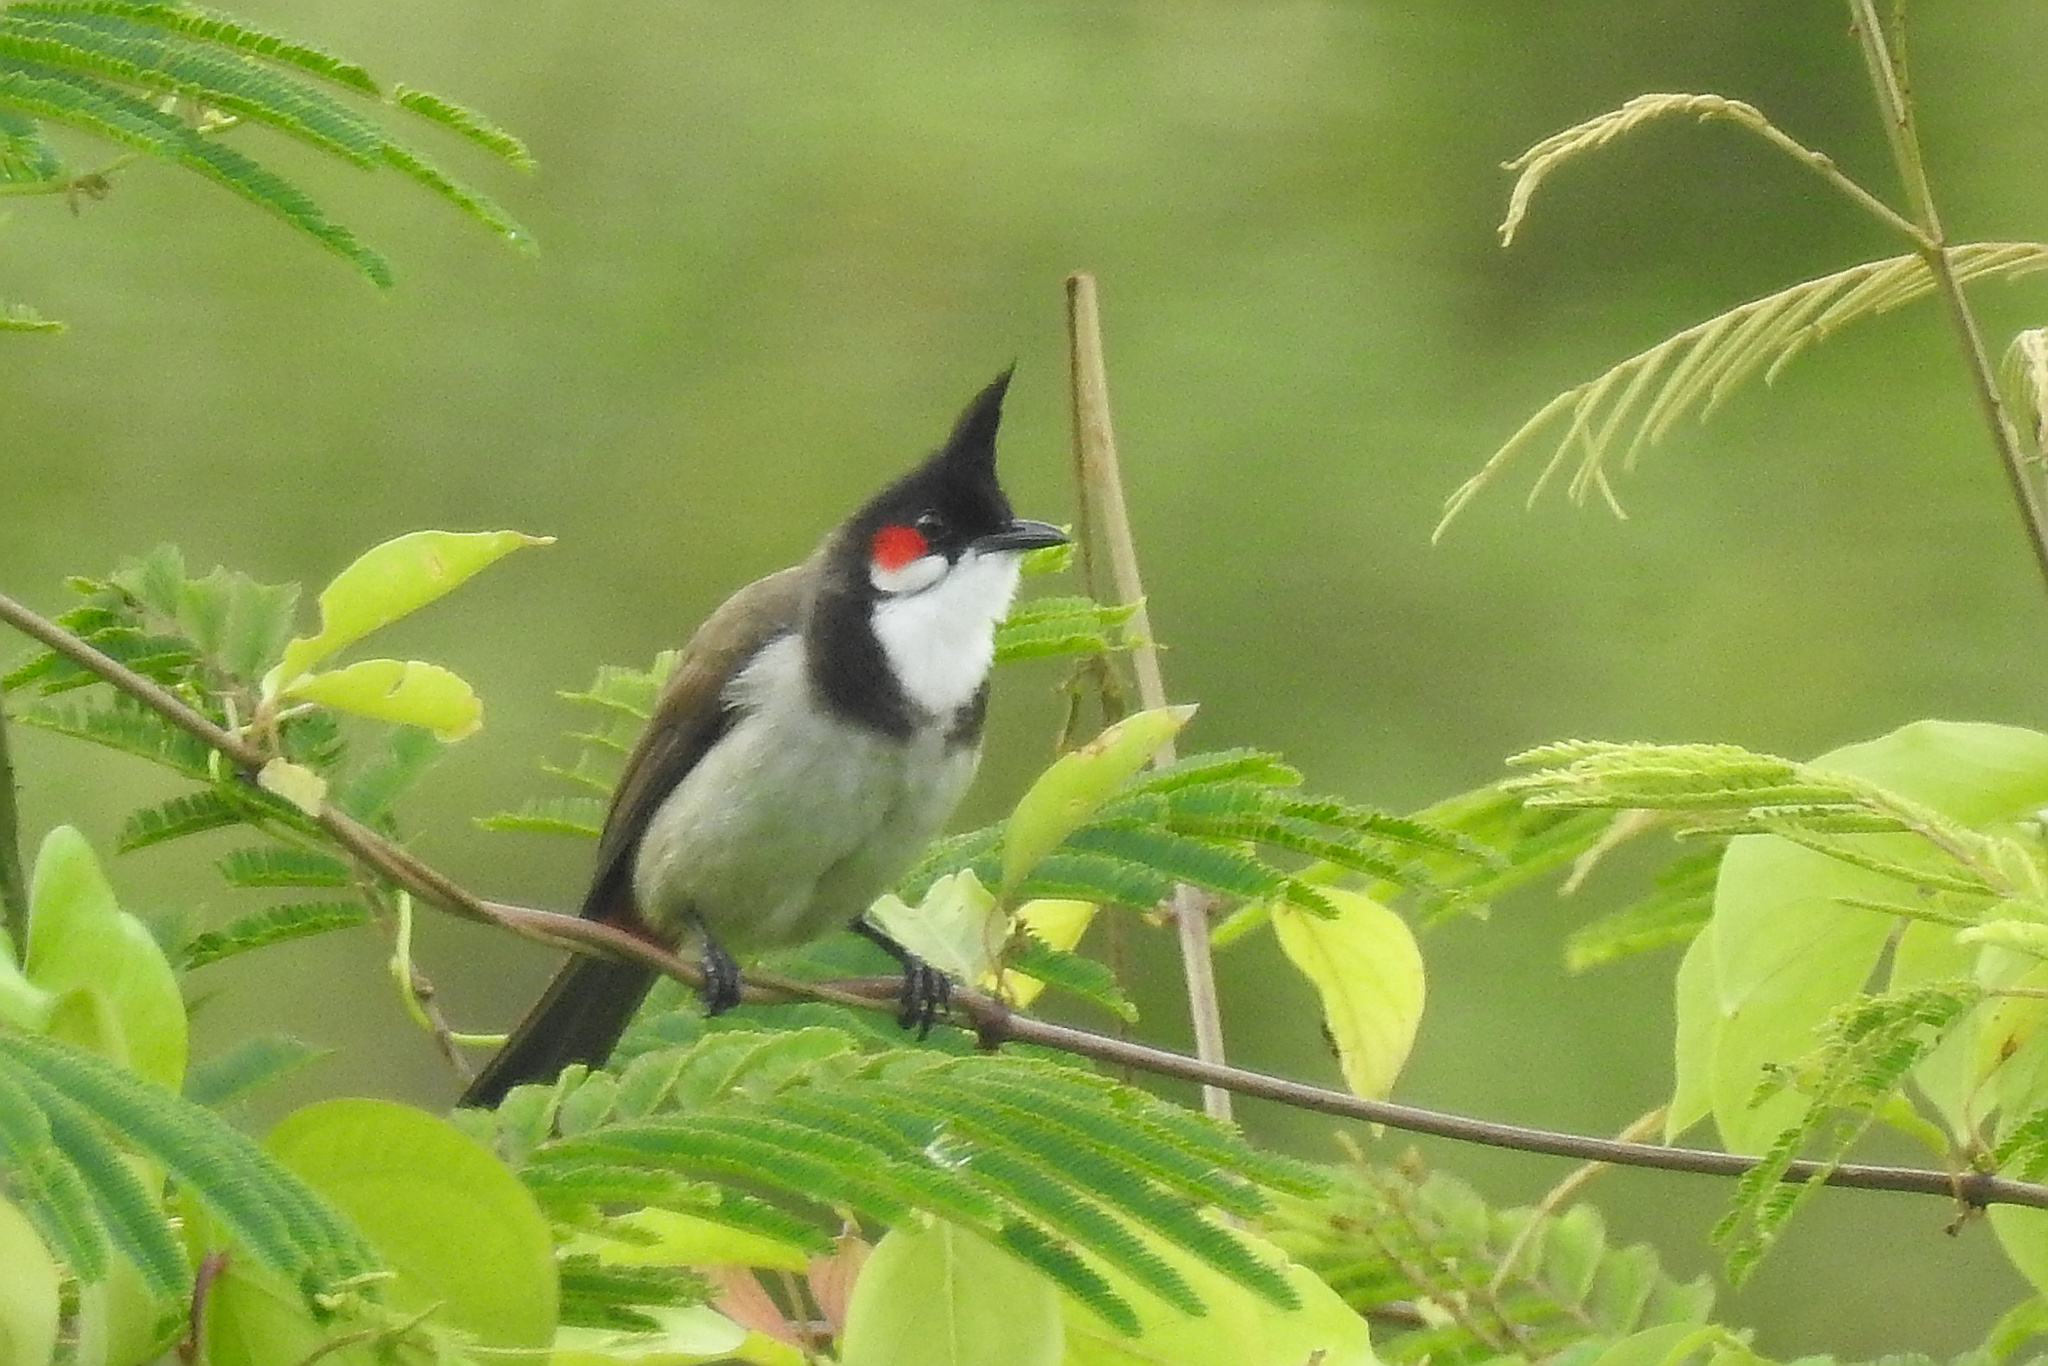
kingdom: Animalia
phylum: Chordata
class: Aves
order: Passeriformes
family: Pycnonotidae
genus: Pycnonotus
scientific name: Pycnonotus jocosus
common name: Red-whiskered bulbul
